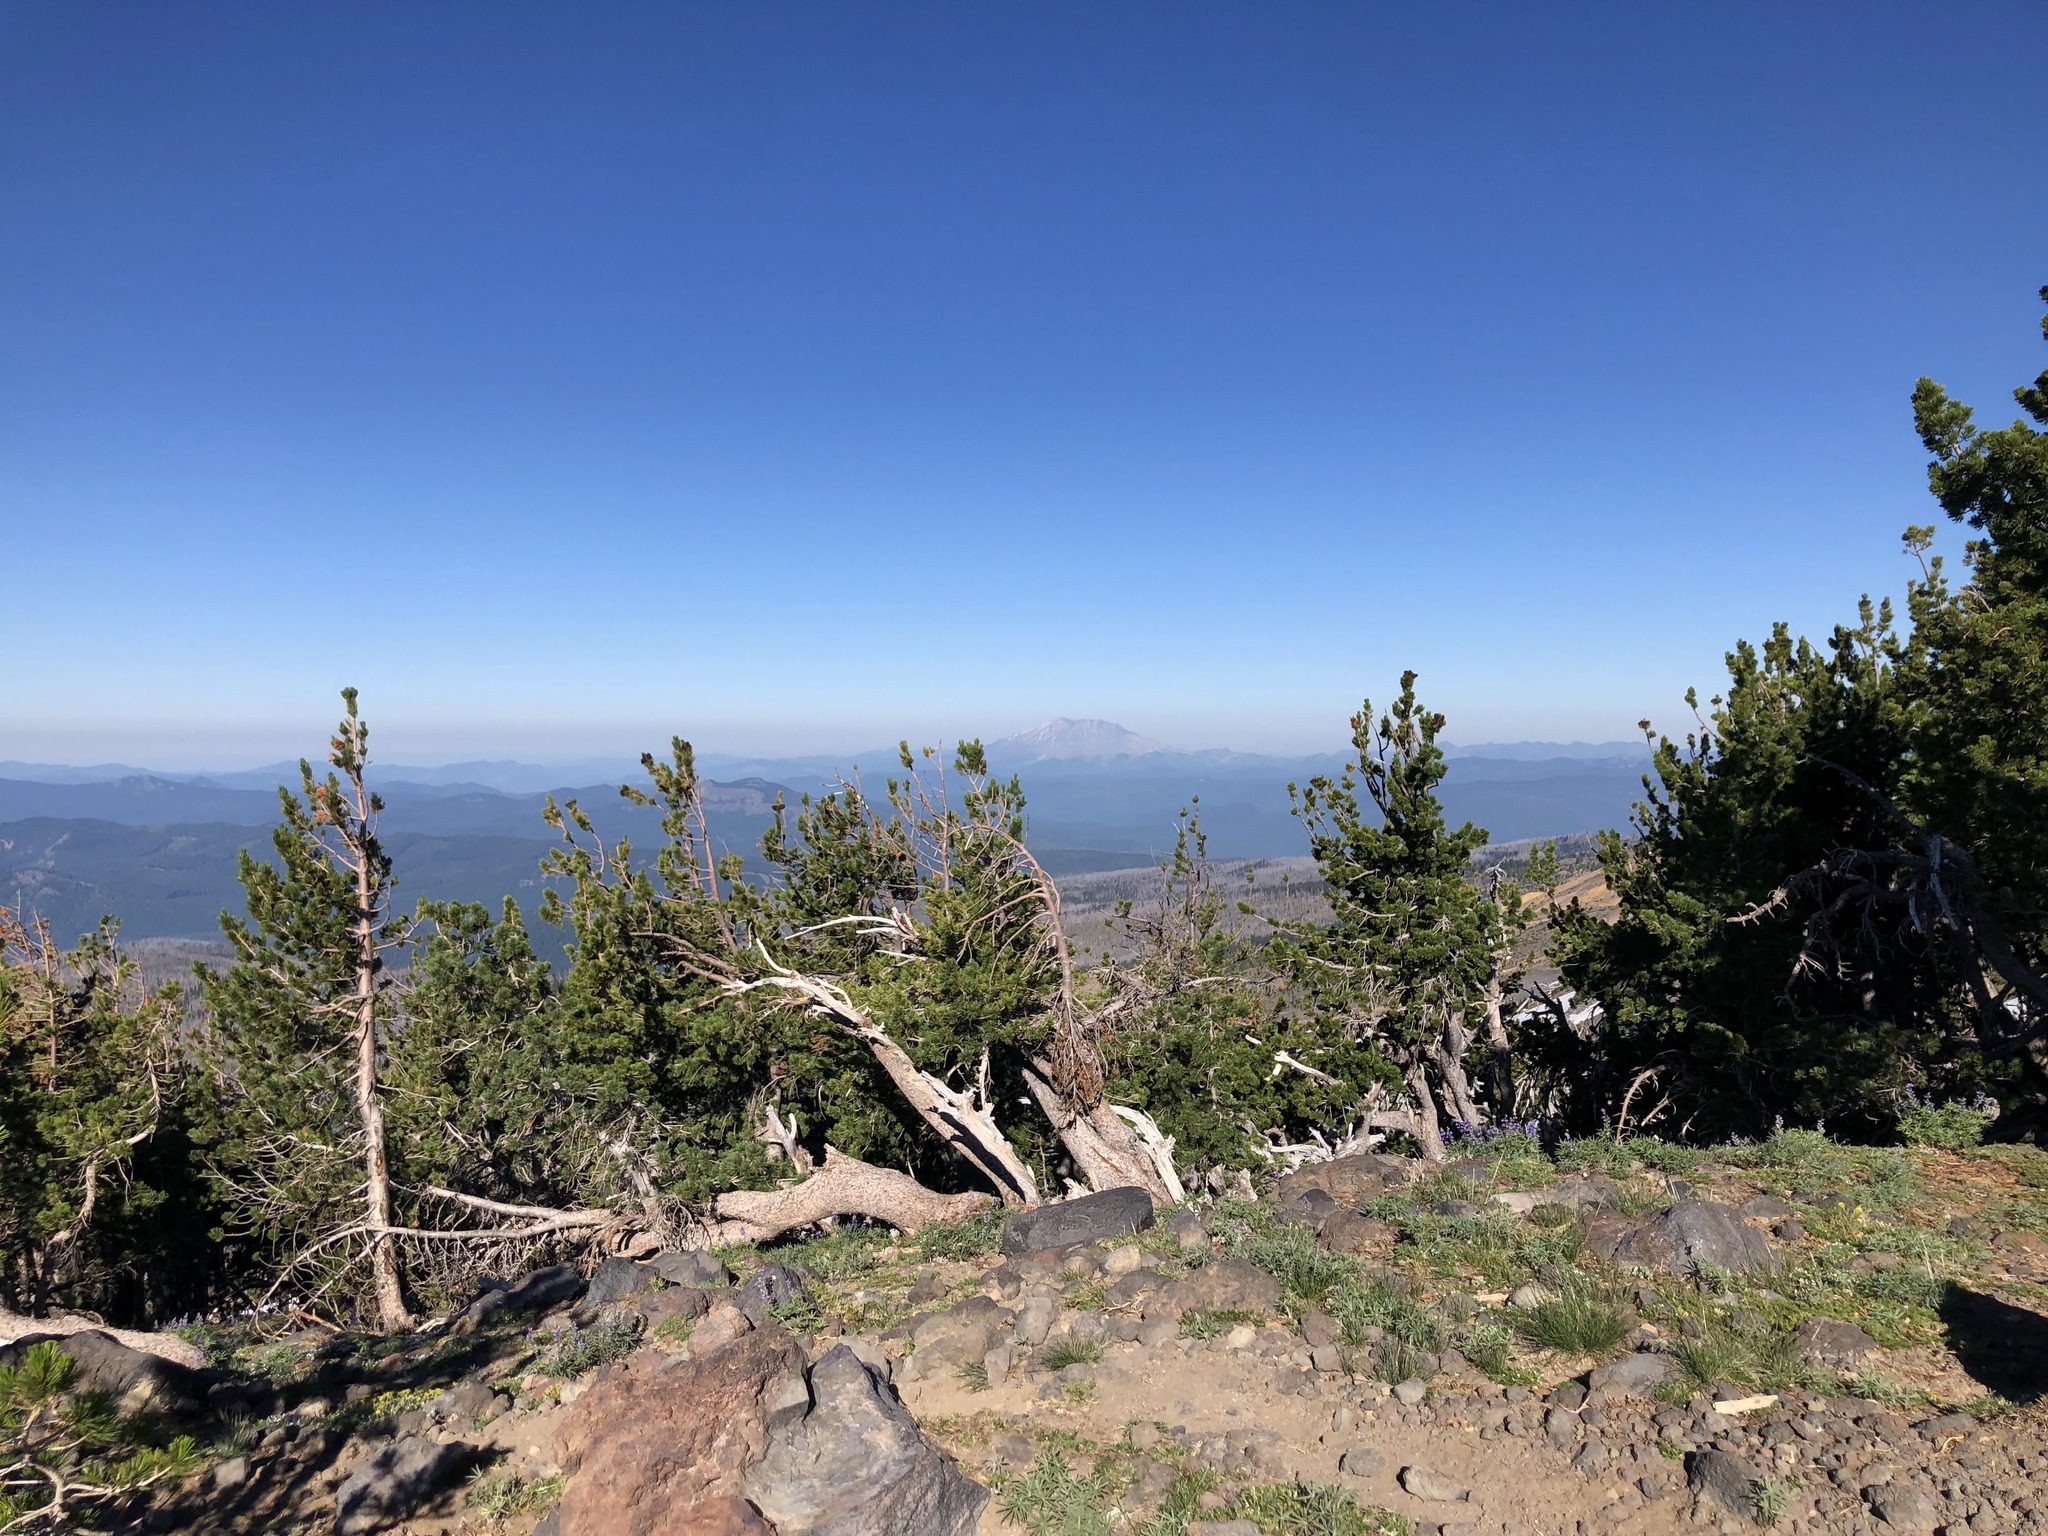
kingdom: Plantae
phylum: Tracheophyta
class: Pinopsida
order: Pinales
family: Pinaceae
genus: Pinus
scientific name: Pinus albicaulis
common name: Whitebark pine
